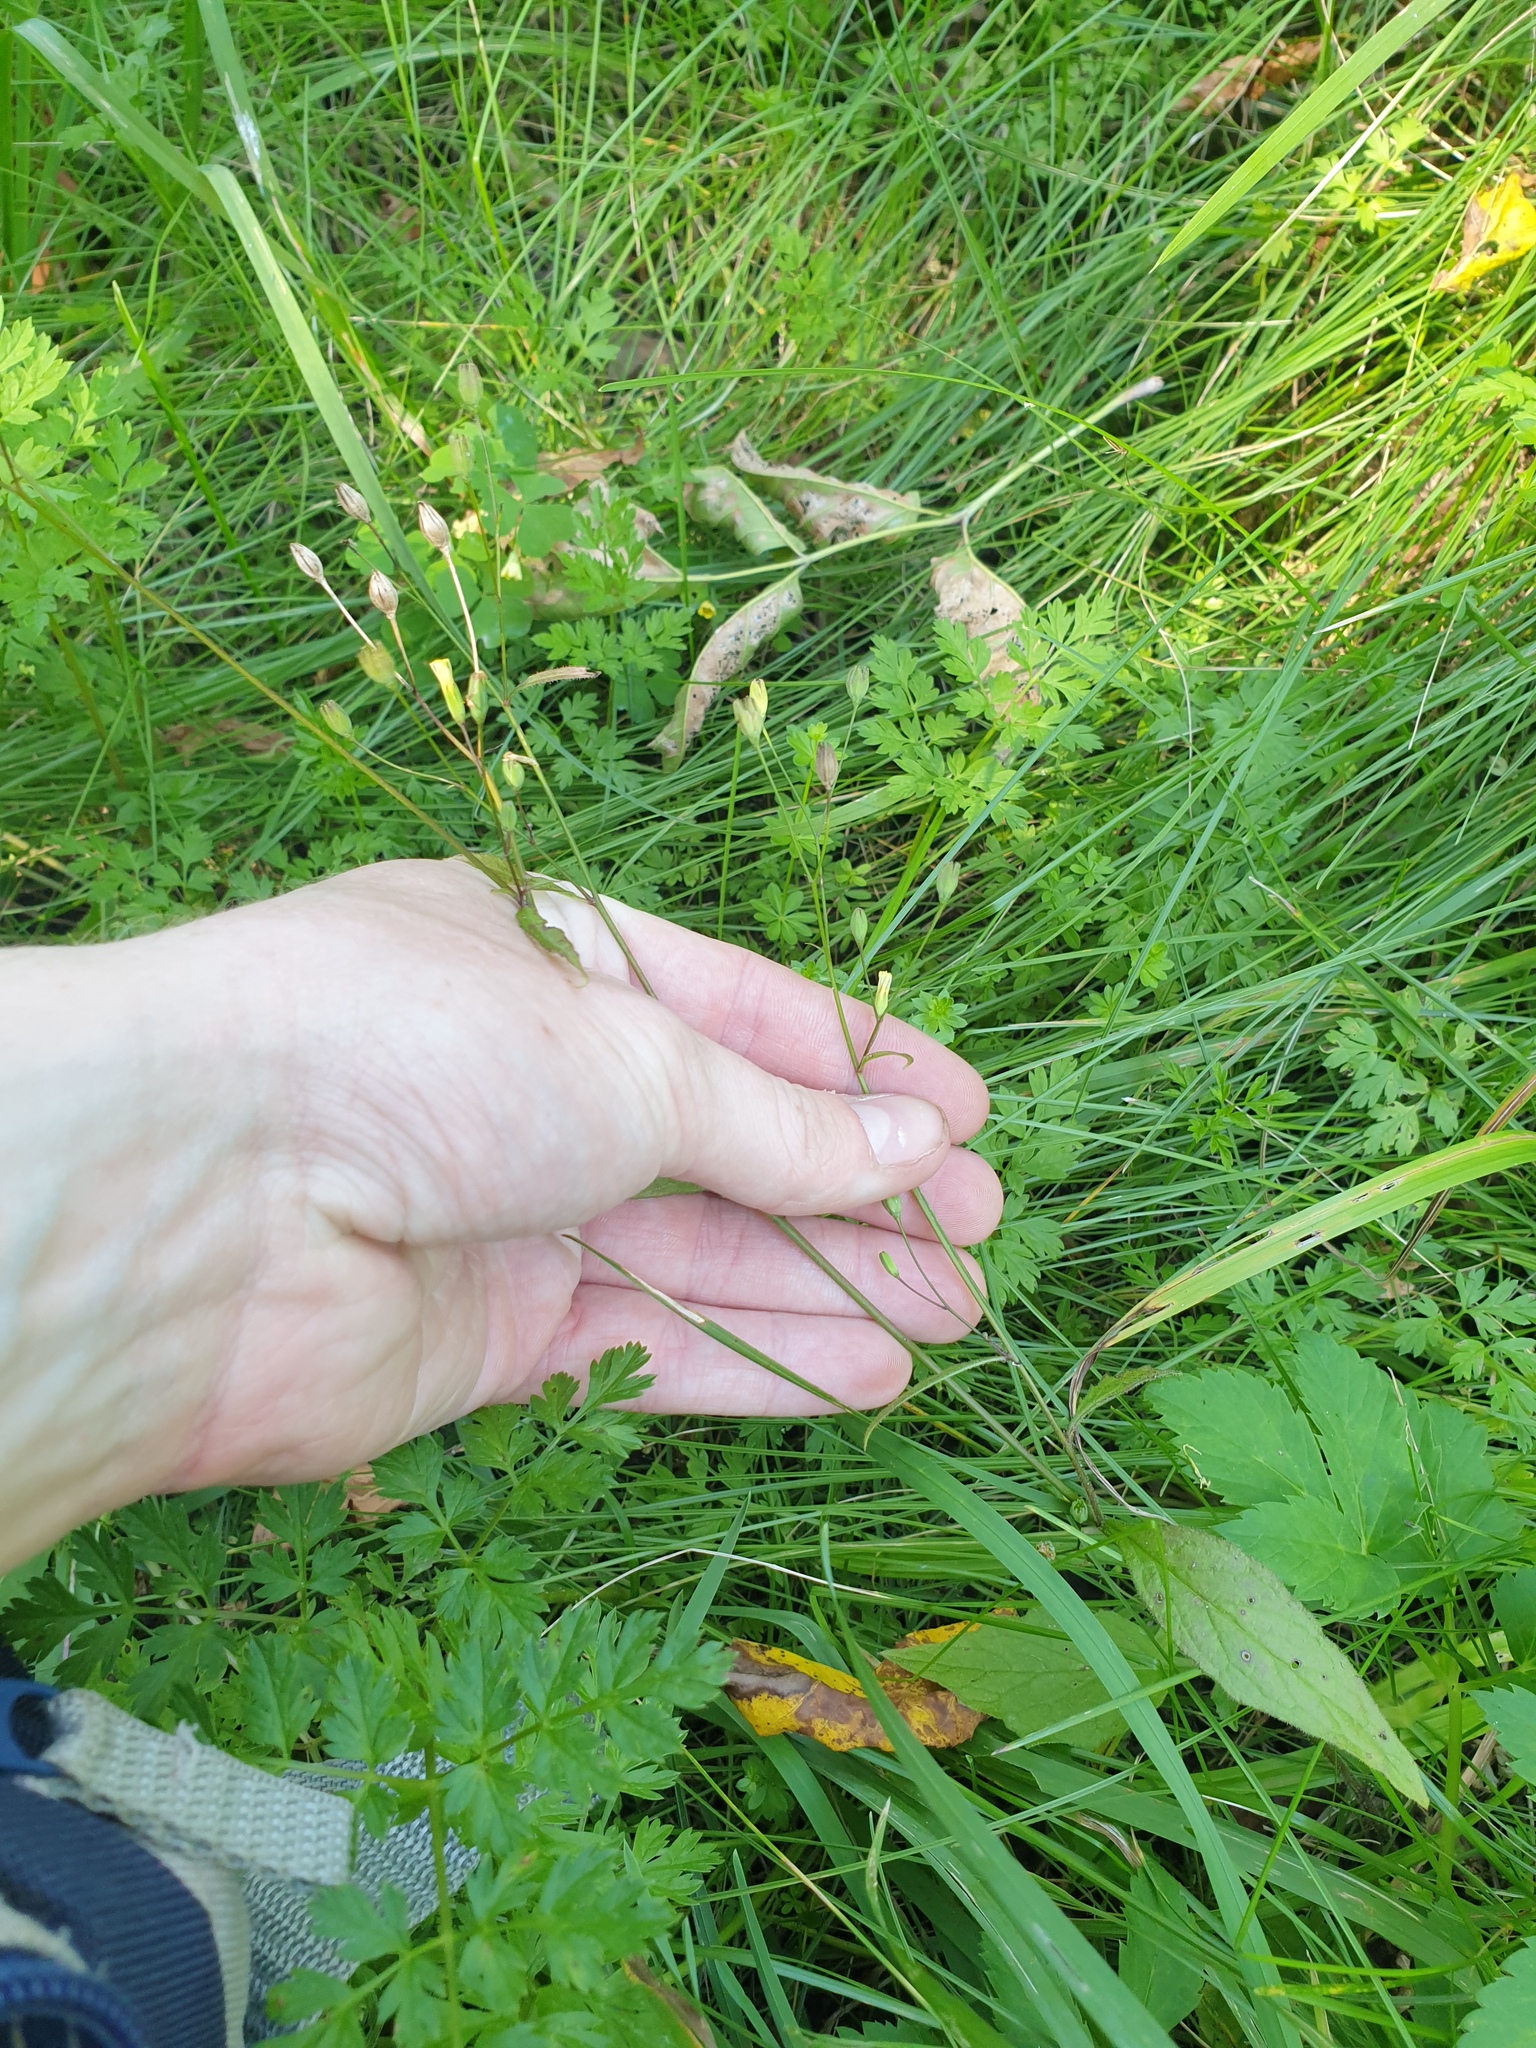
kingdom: Plantae
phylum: Tracheophyta
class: Magnoliopsida
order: Asterales
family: Asteraceae
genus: Lapsana
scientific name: Lapsana communis
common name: Nipplewort
